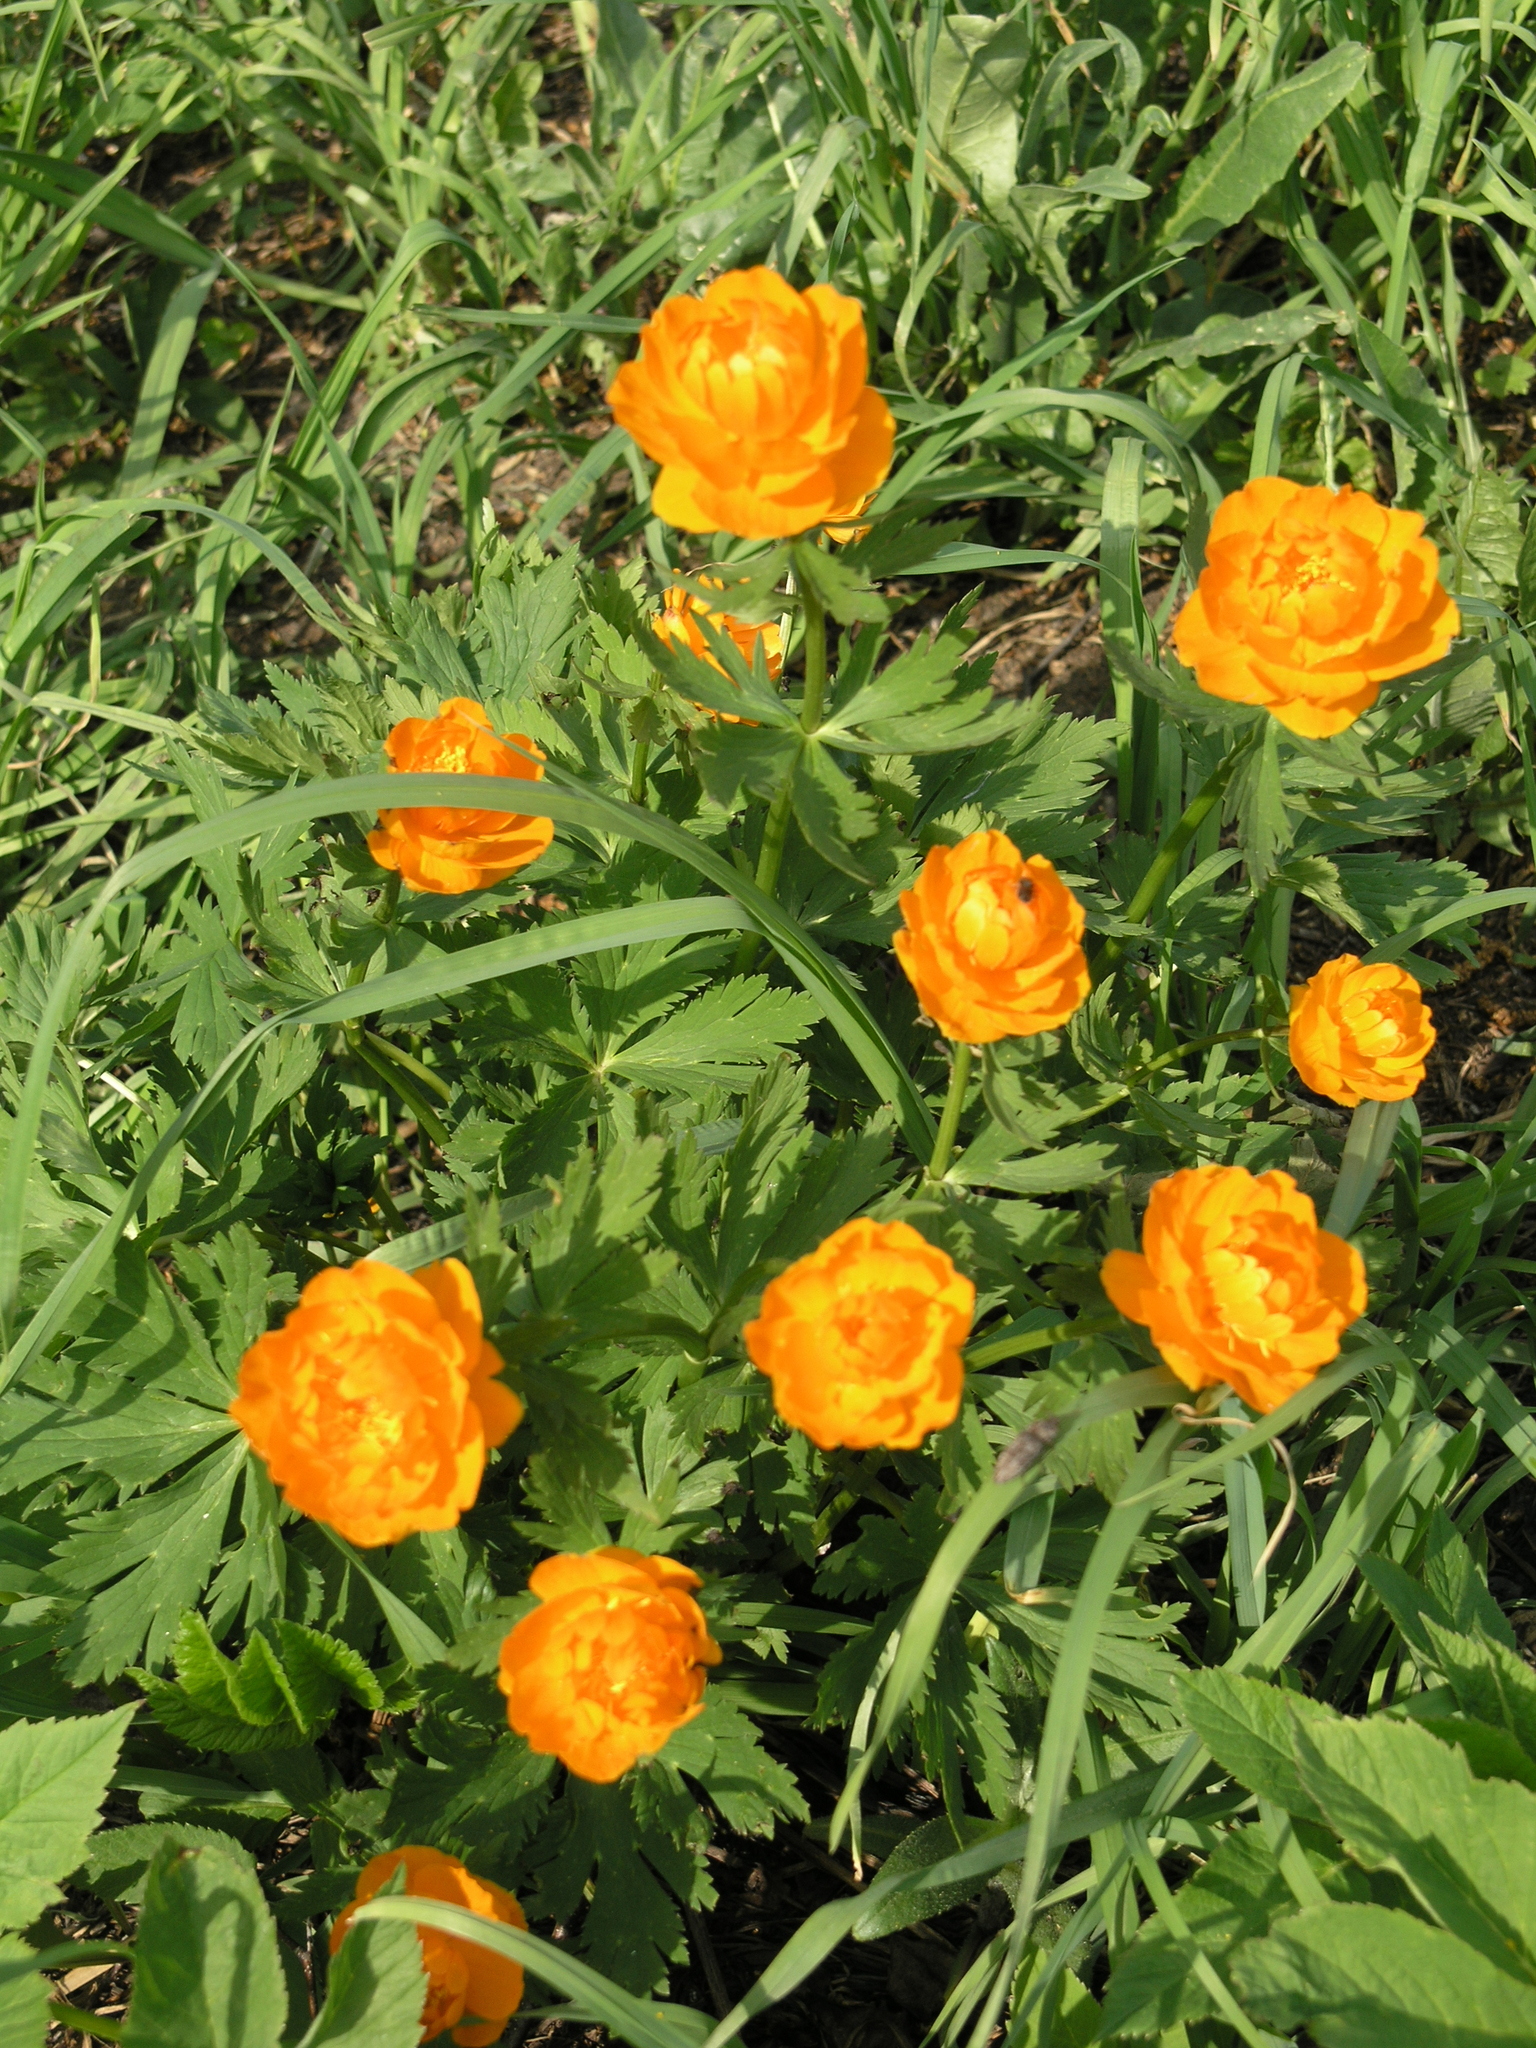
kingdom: Plantae
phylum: Tracheophyta
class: Magnoliopsida
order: Ranunculales
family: Ranunculaceae
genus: Trollius
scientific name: Trollius asiaticus
